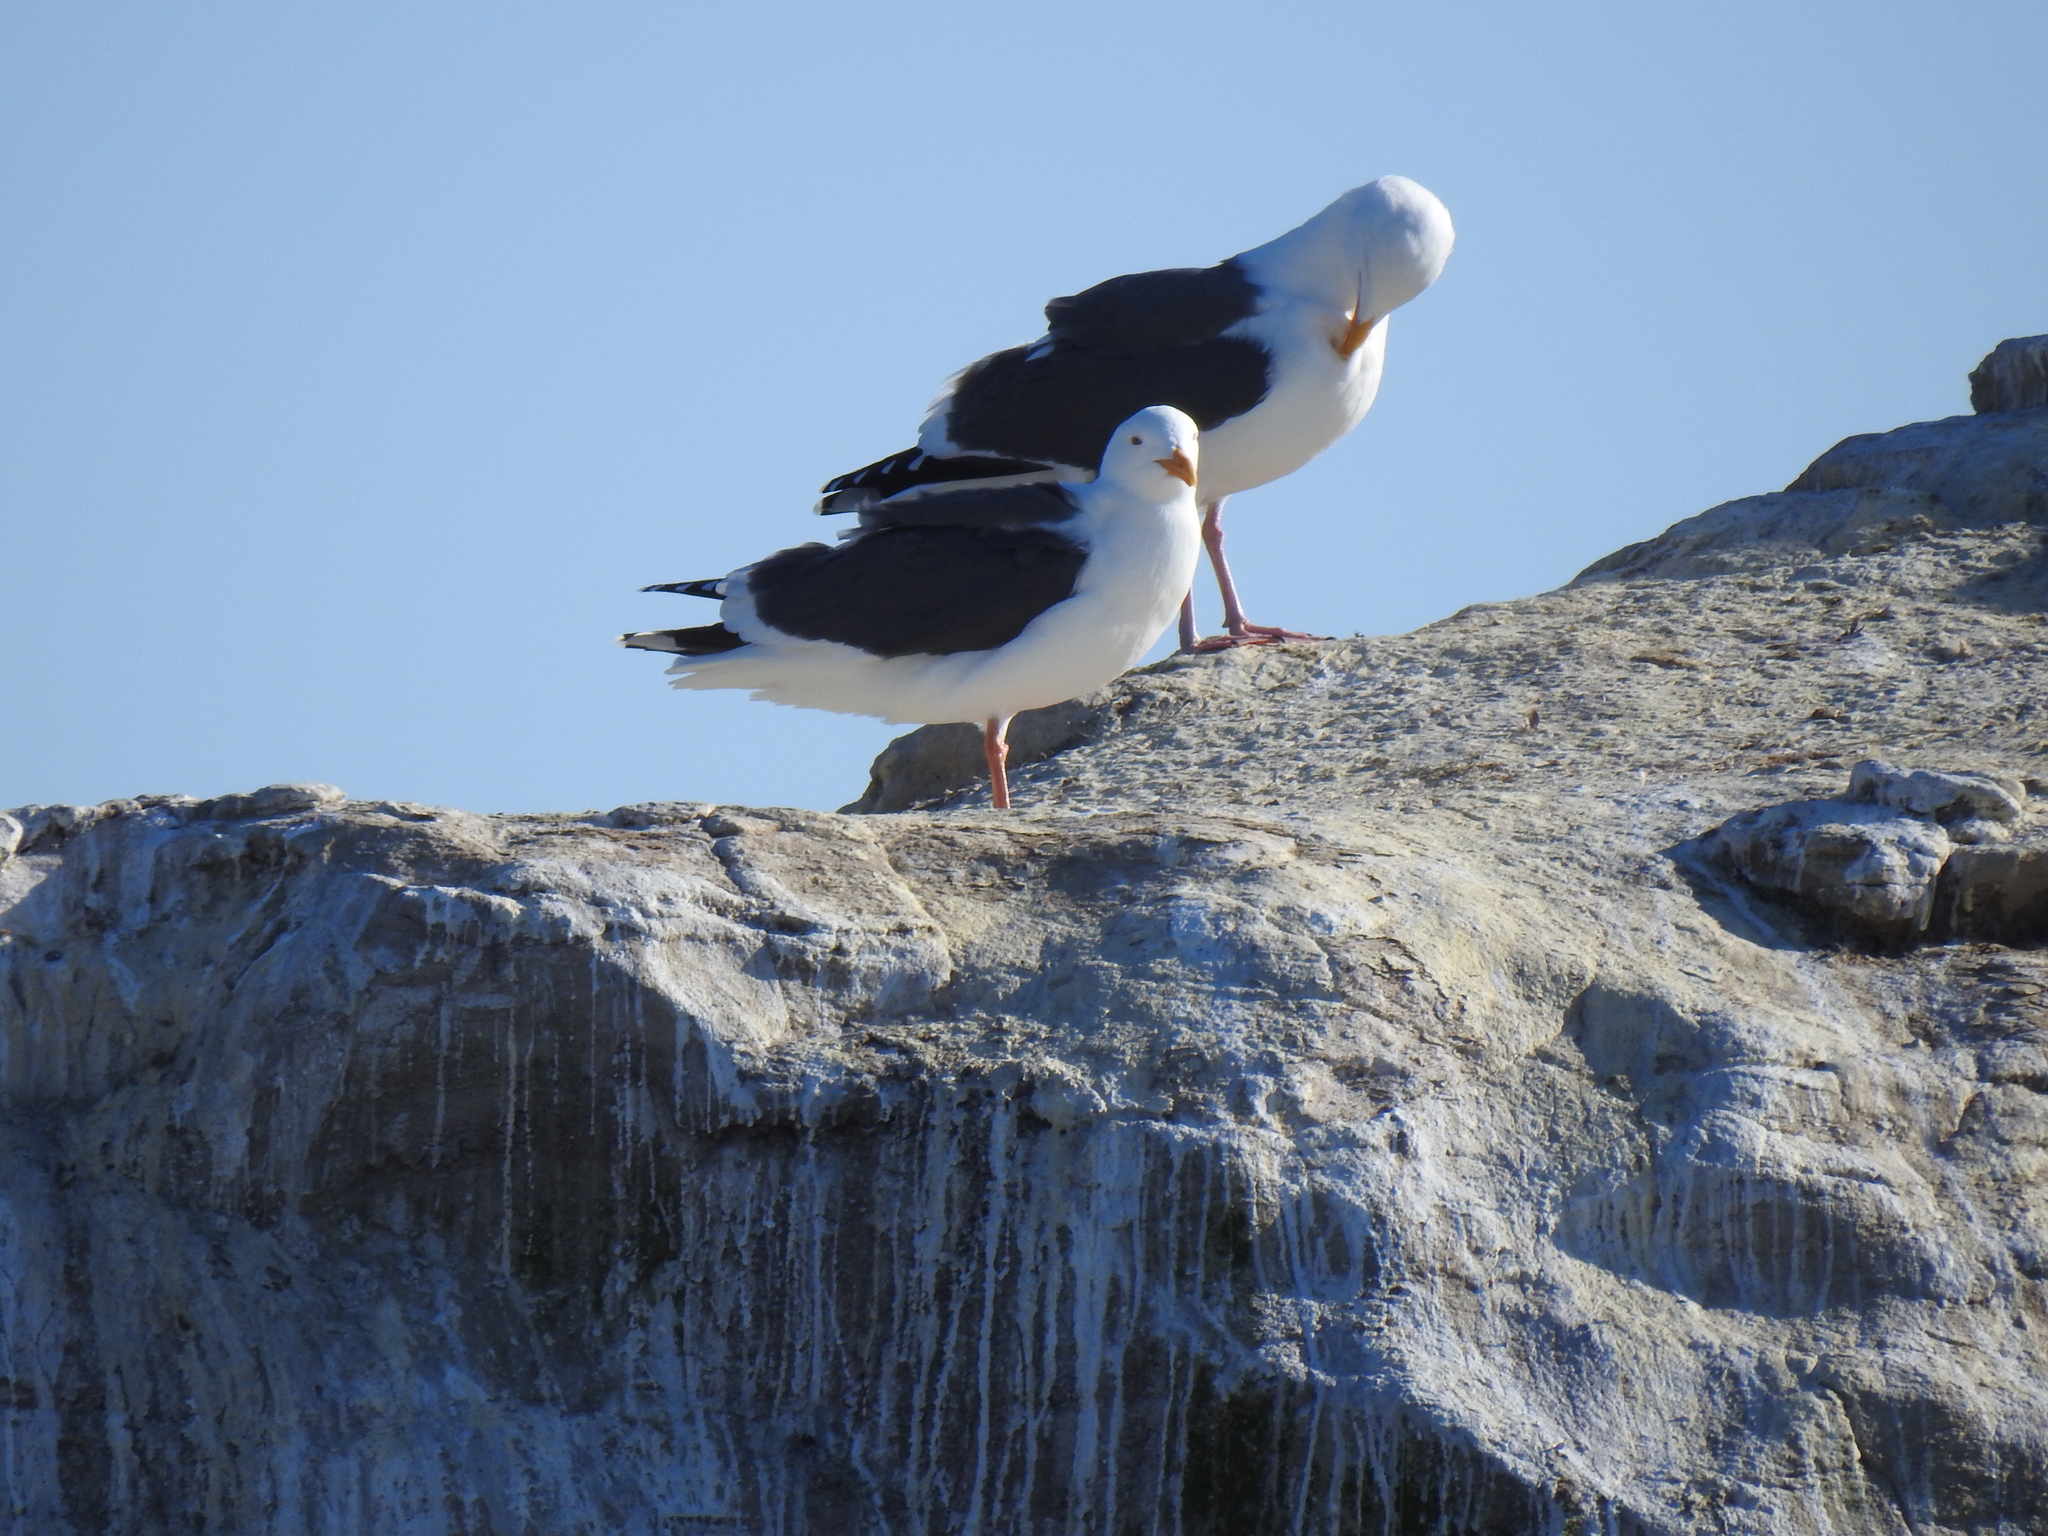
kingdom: Animalia
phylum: Chordata
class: Aves
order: Charadriiformes
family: Laridae
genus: Larus
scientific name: Larus occidentalis
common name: Western gull
